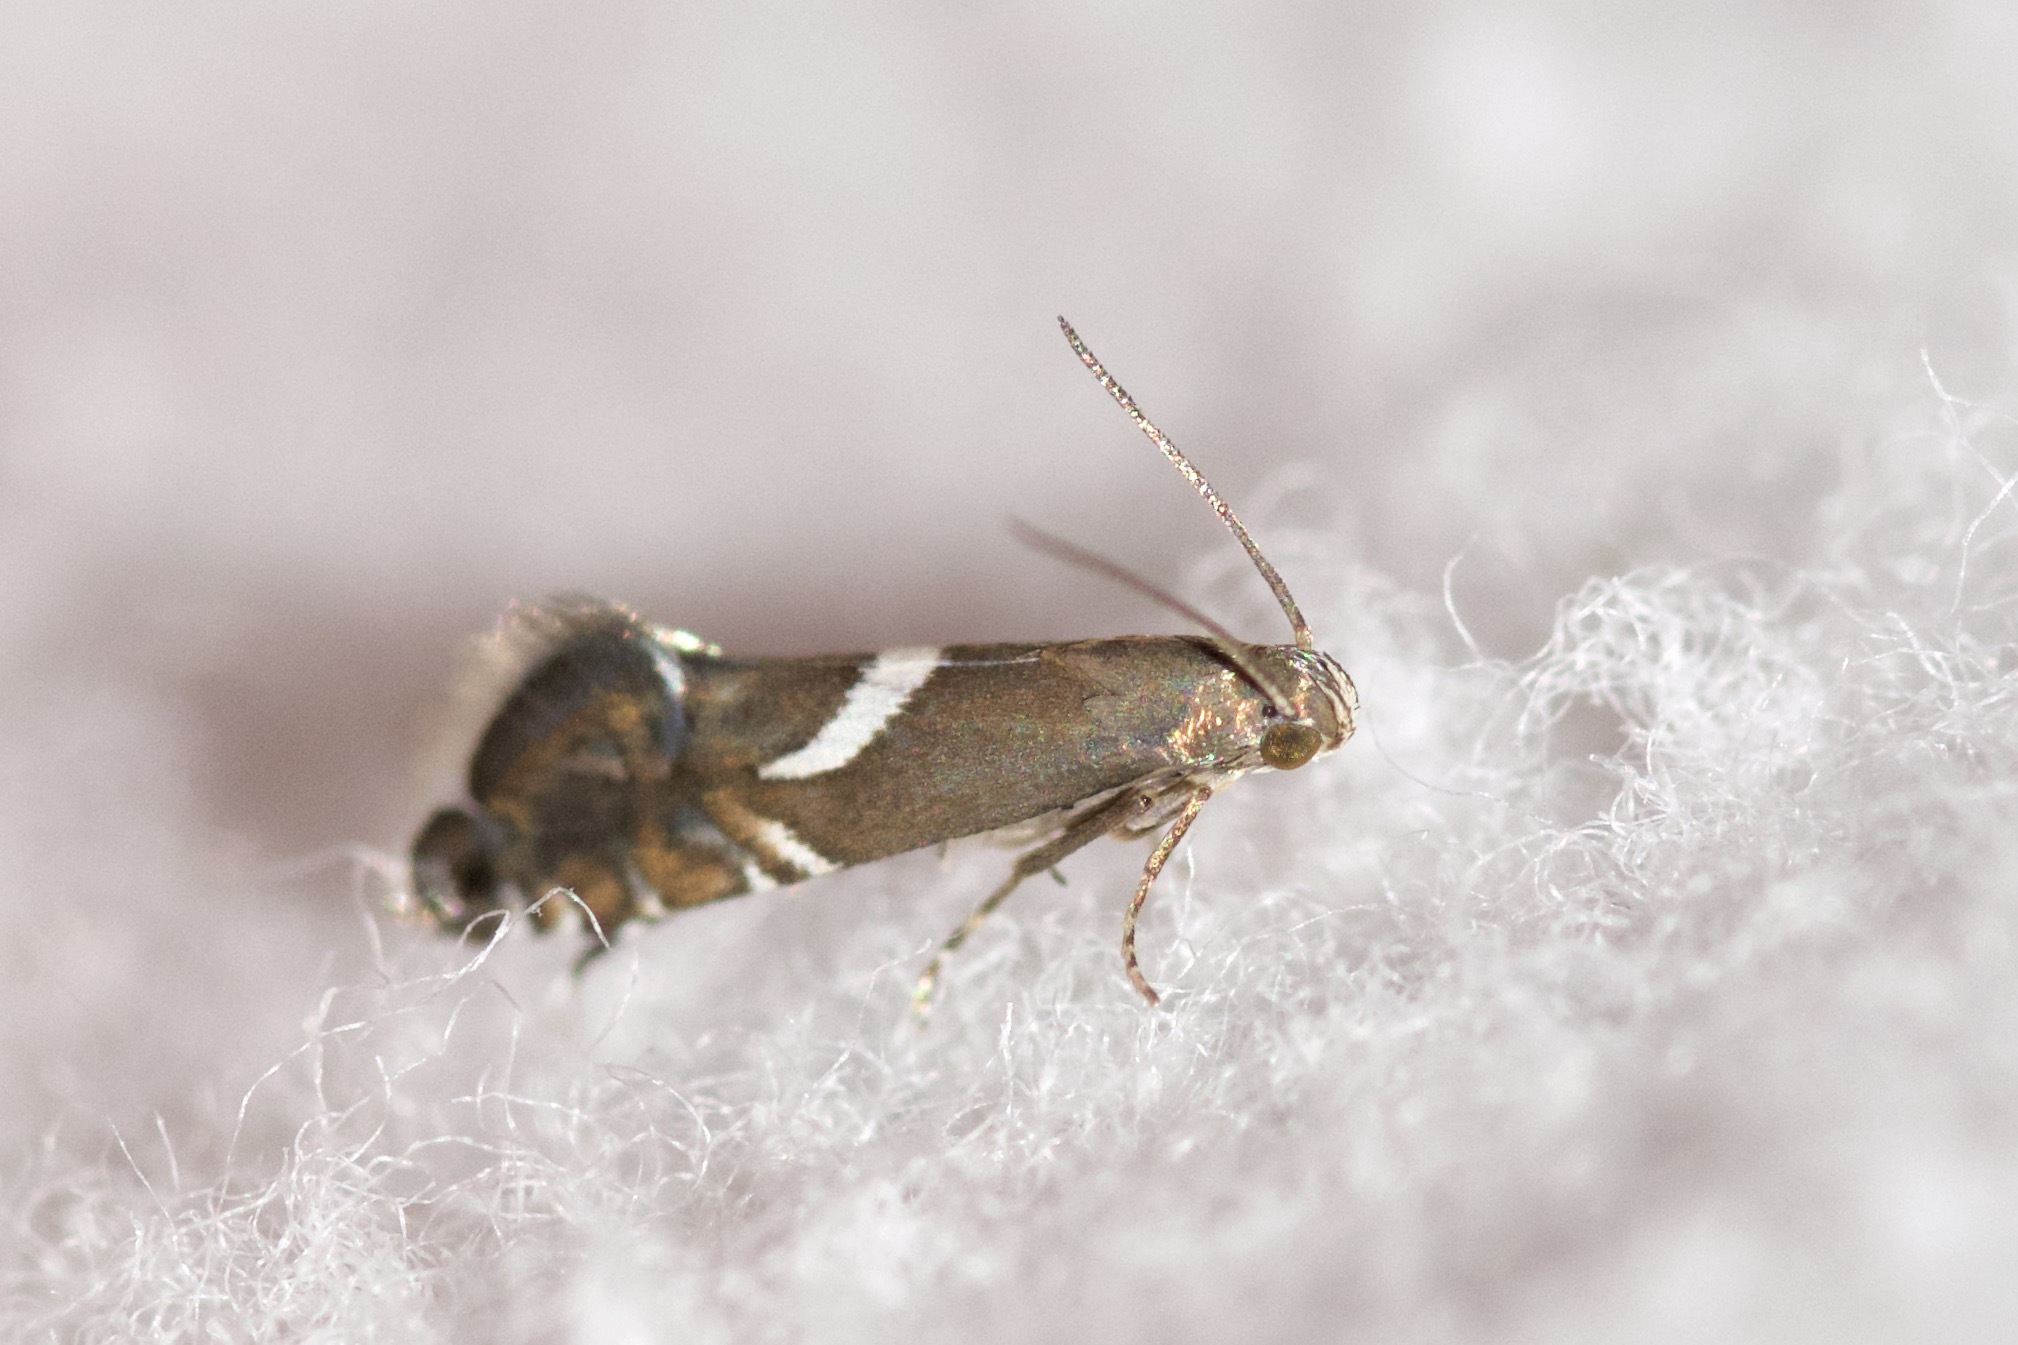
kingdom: Animalia
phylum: Arthropoda
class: Insecta
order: Lepidoptera
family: Glyphipterigidae
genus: Glyphipterix
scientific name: Glyphipterix Diploschizia impigritella
